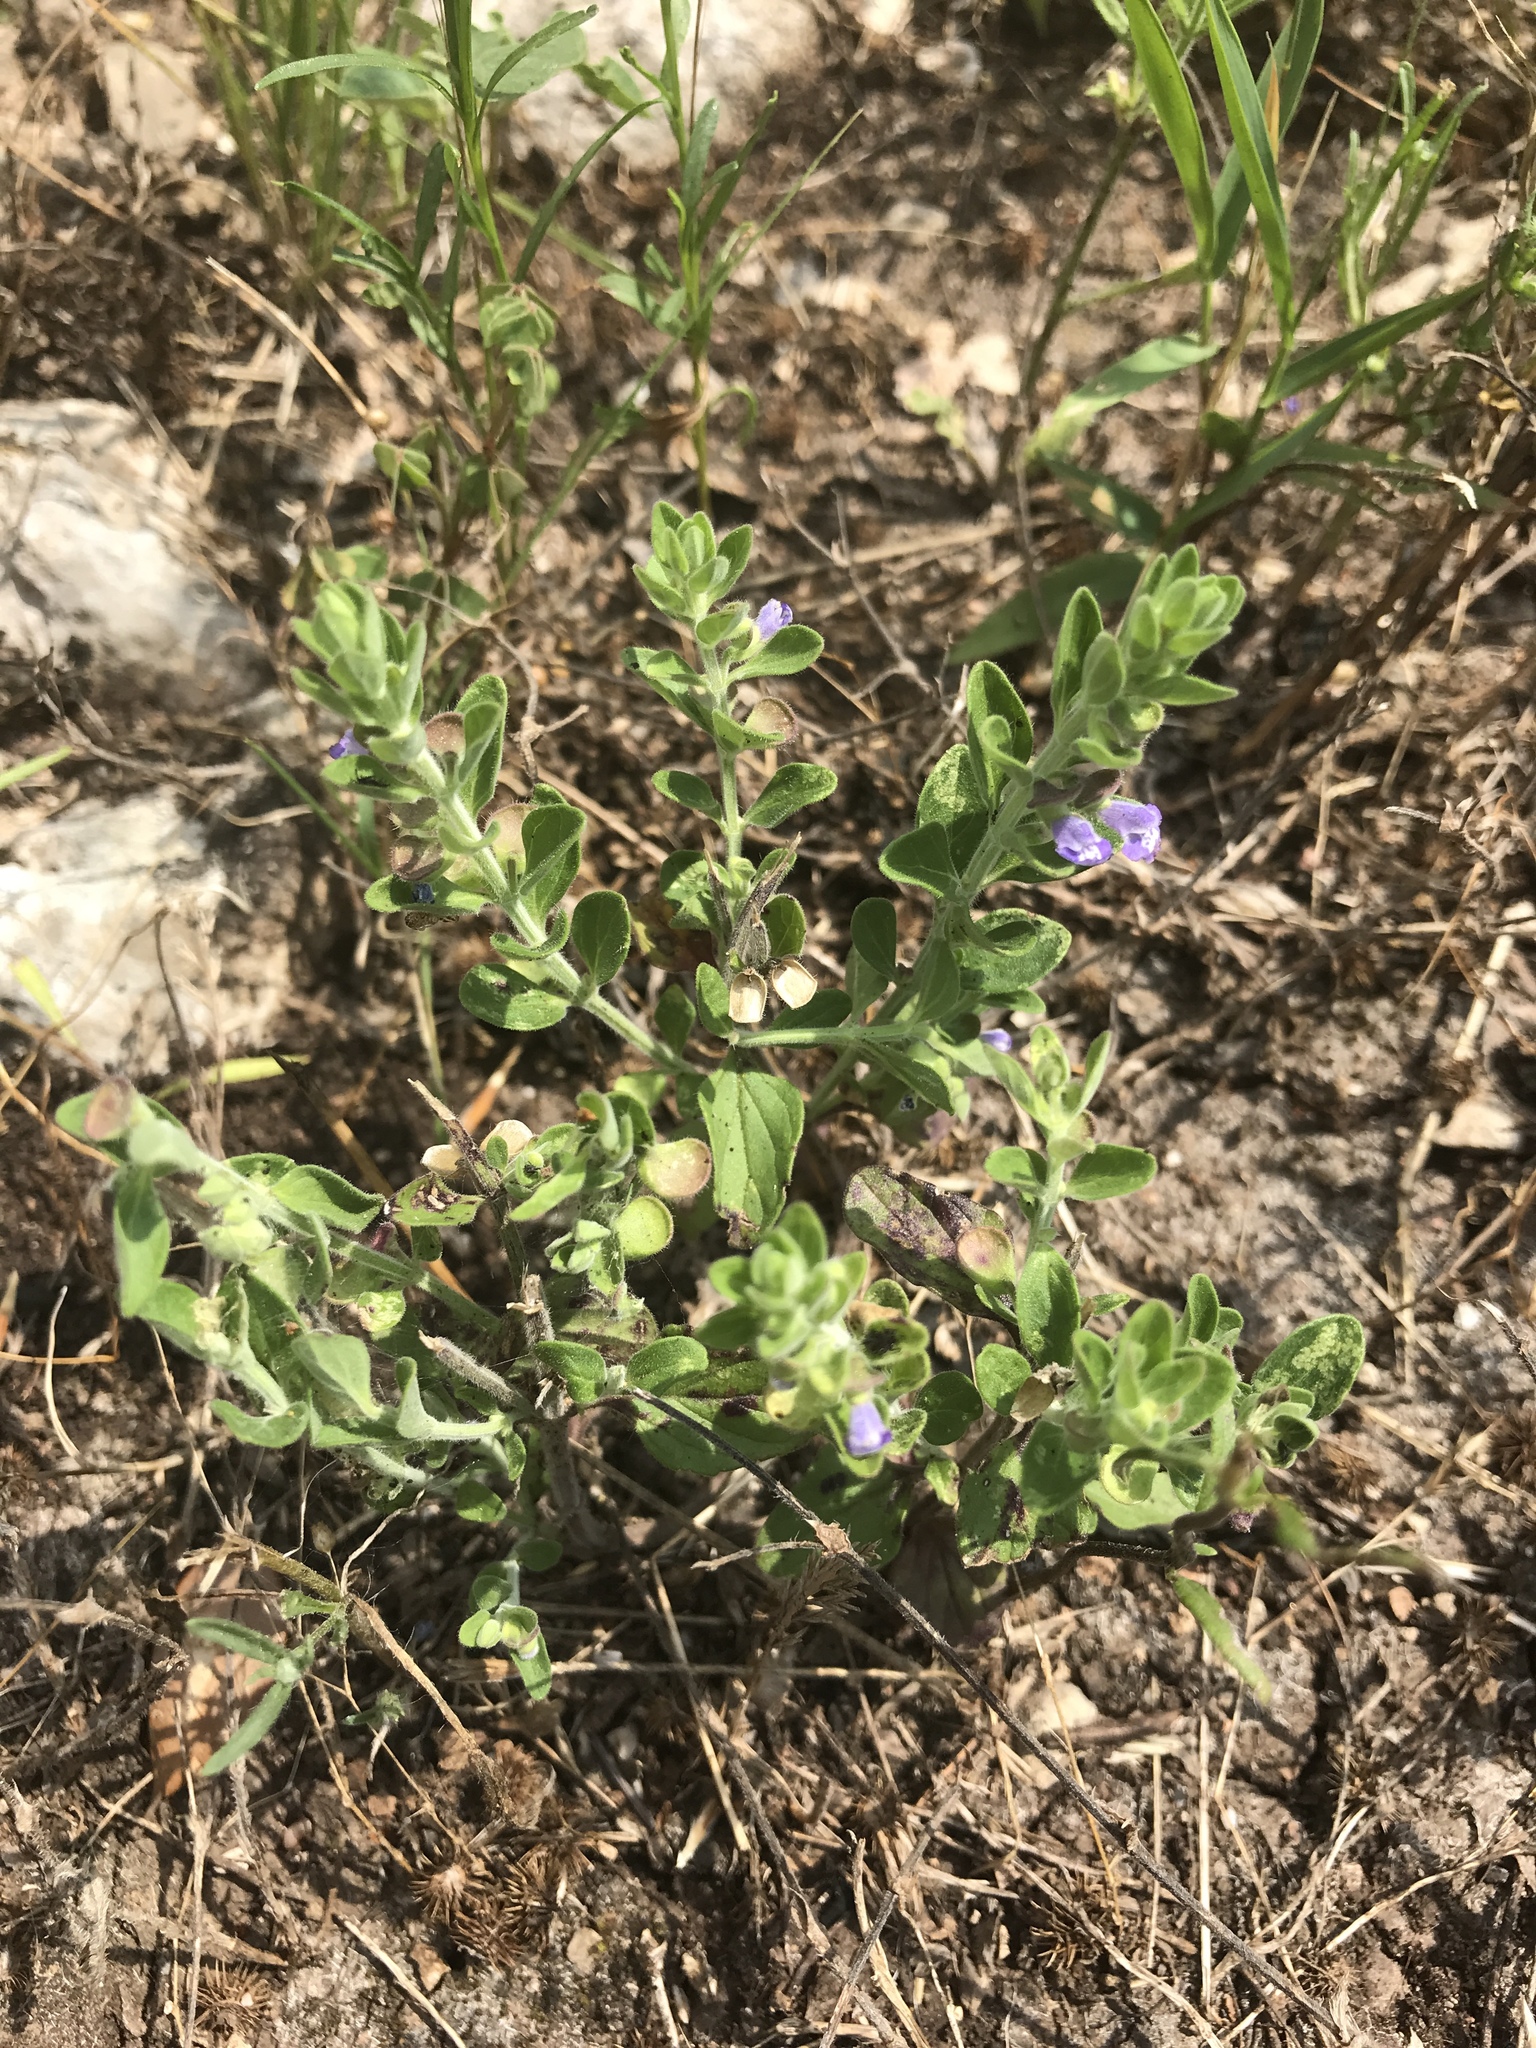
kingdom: Plantae
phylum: Tracheophyta
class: Magnoliopsida
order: Lamiales
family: Lamiaceae
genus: Scutellaria
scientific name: Scutellaria drummondii
